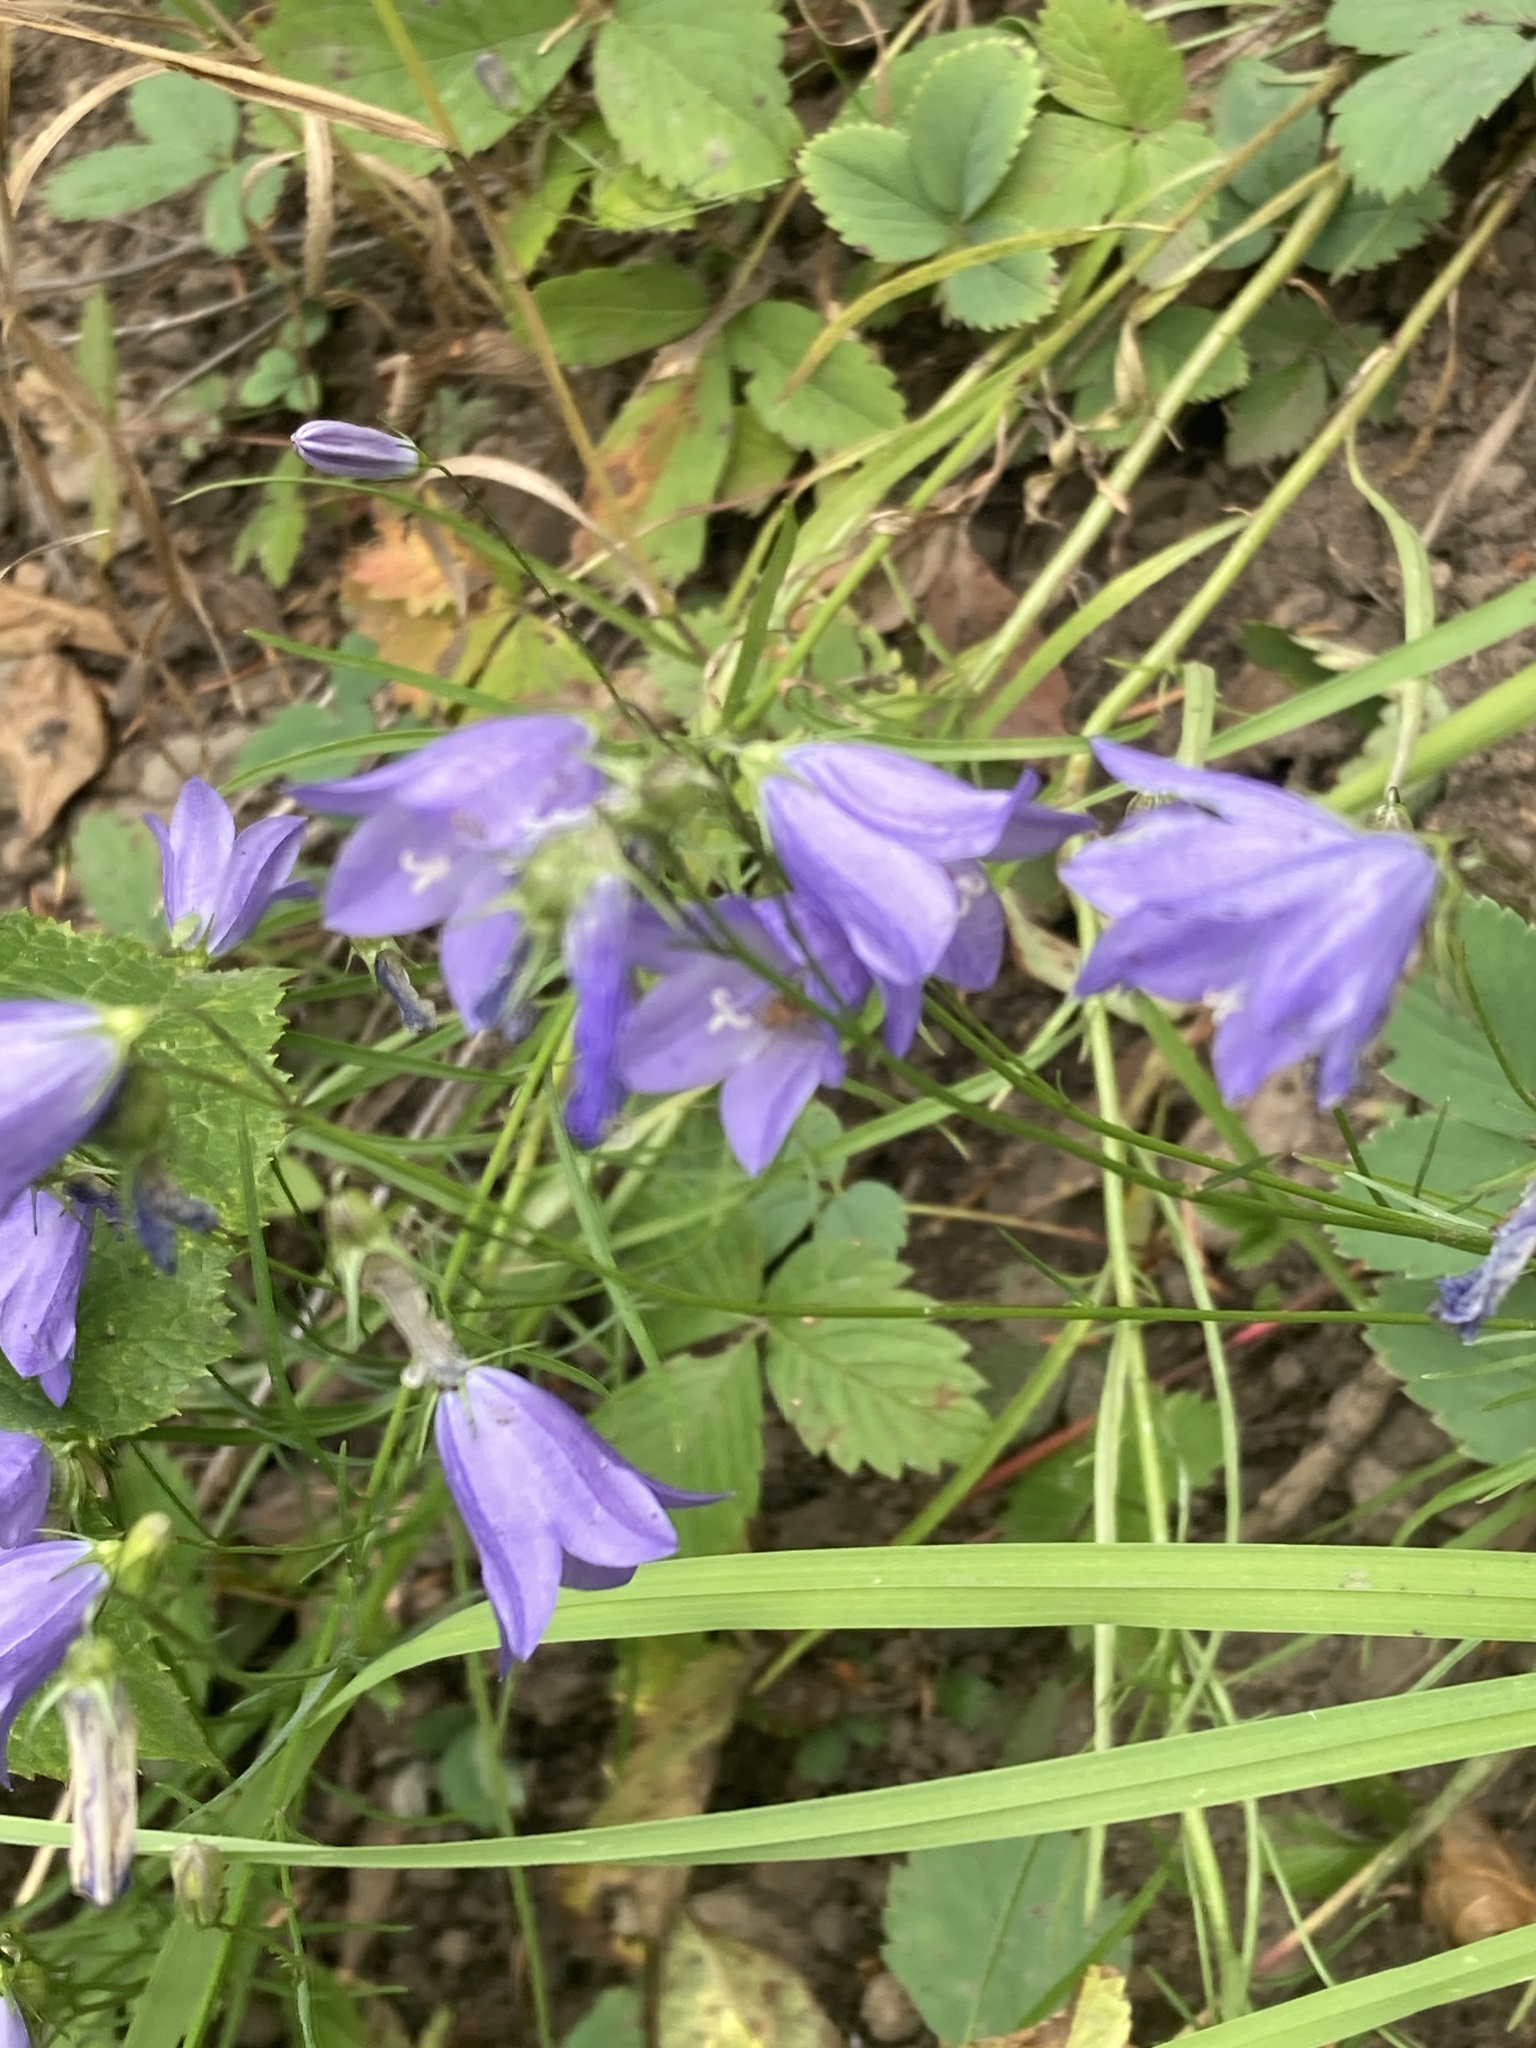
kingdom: Plantae
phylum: Tracheophyta
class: Magnoliopsida
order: Asterales
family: Campanulaceae
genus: Campanula
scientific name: Campanula petiolata
